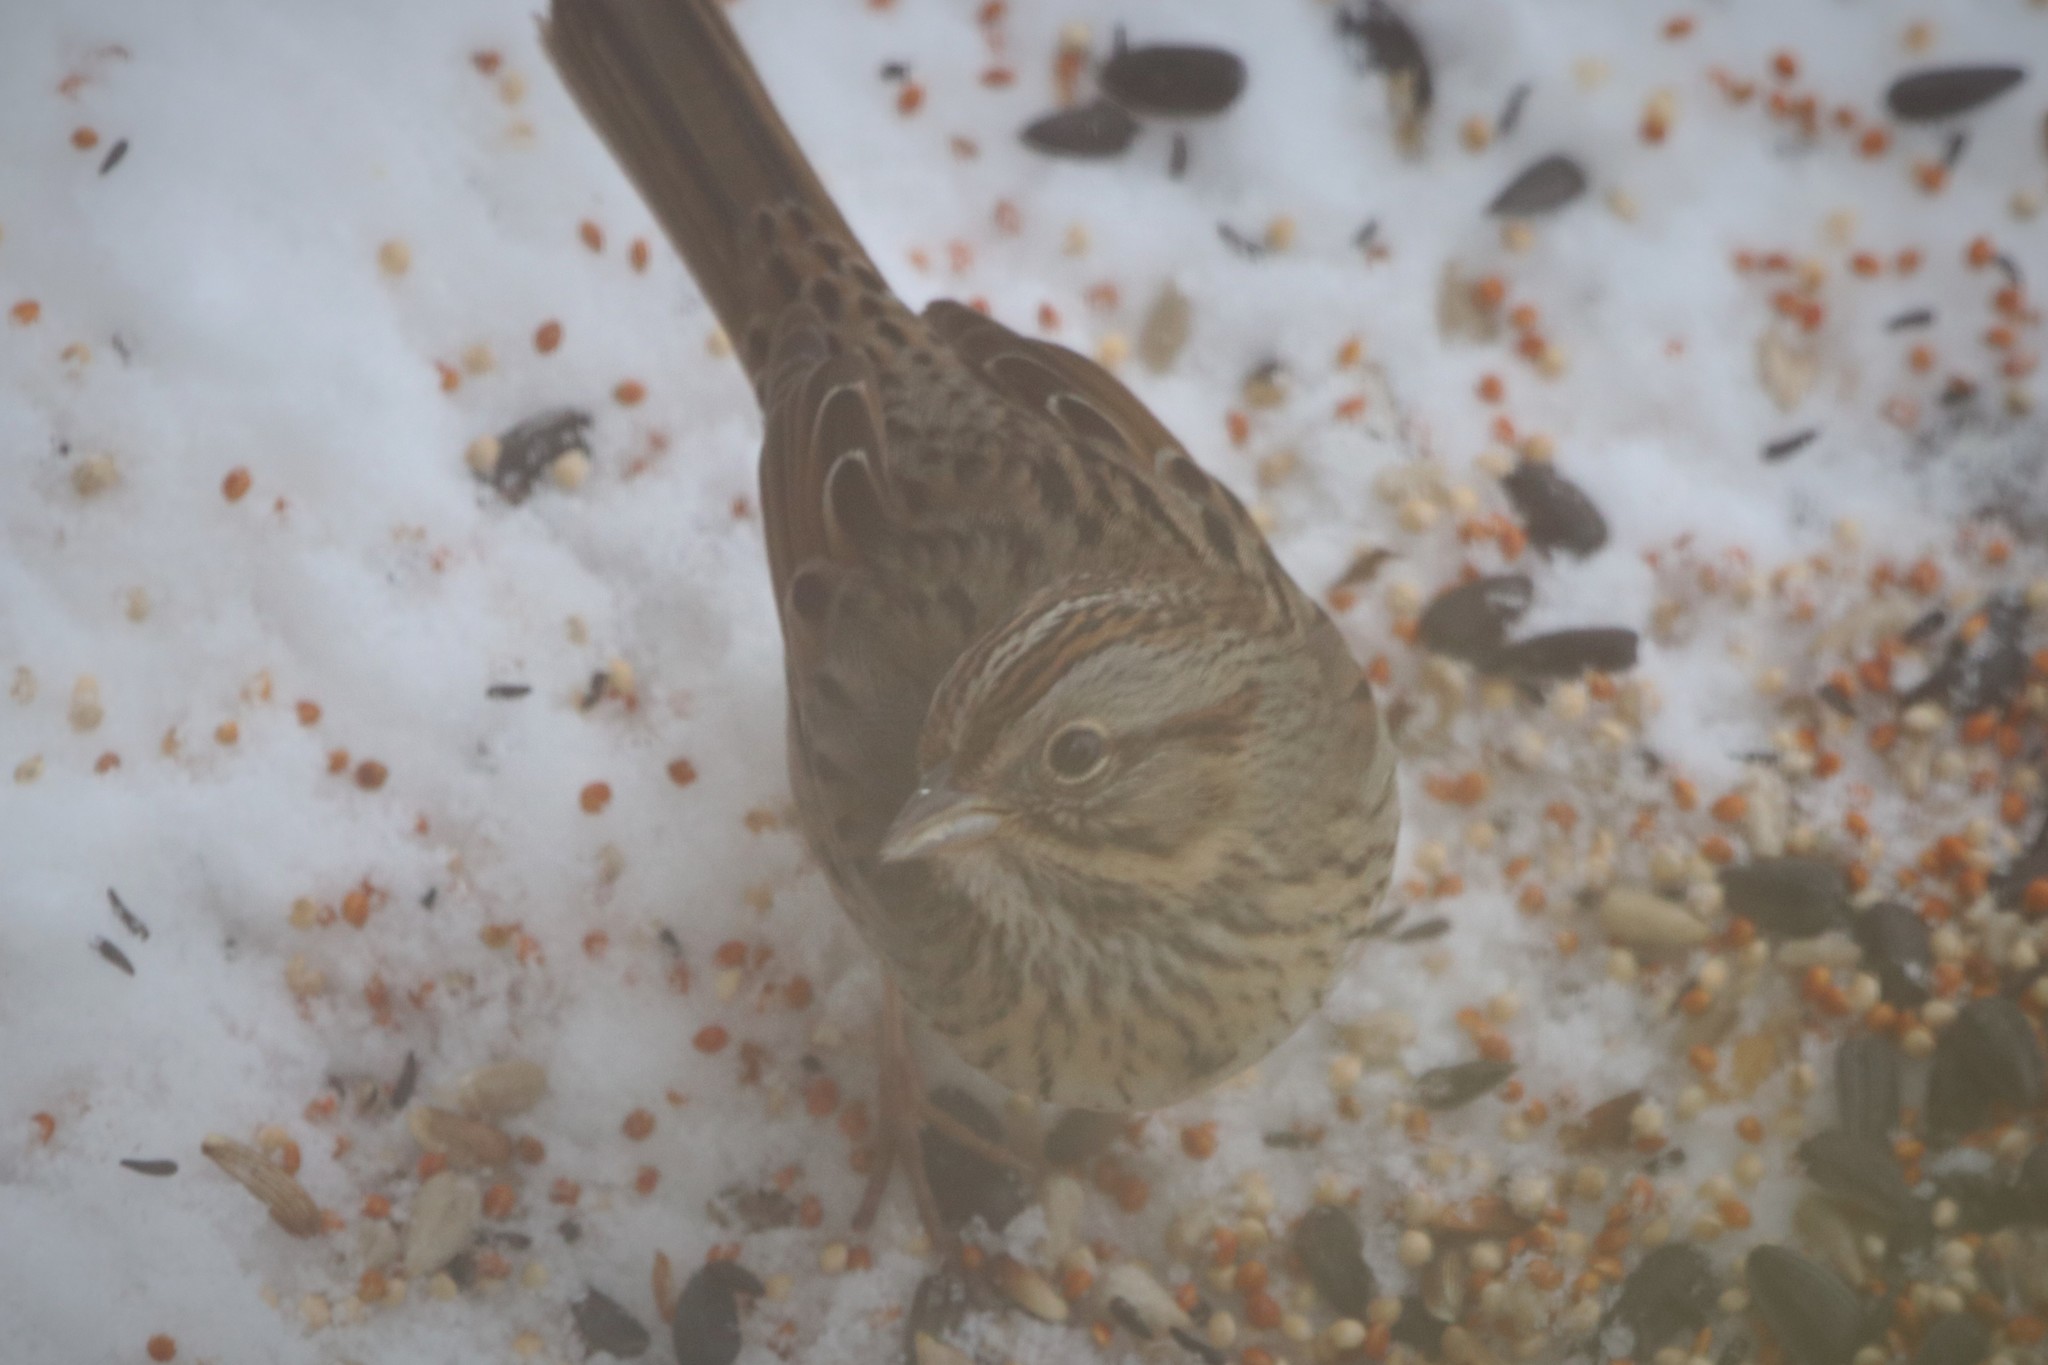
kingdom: Animalia
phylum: Chordata
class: Aves
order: Passeriformes
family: Passerellidae
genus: Melospiza
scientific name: Melospiza lincolnii
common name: Lincoln's sparrow
